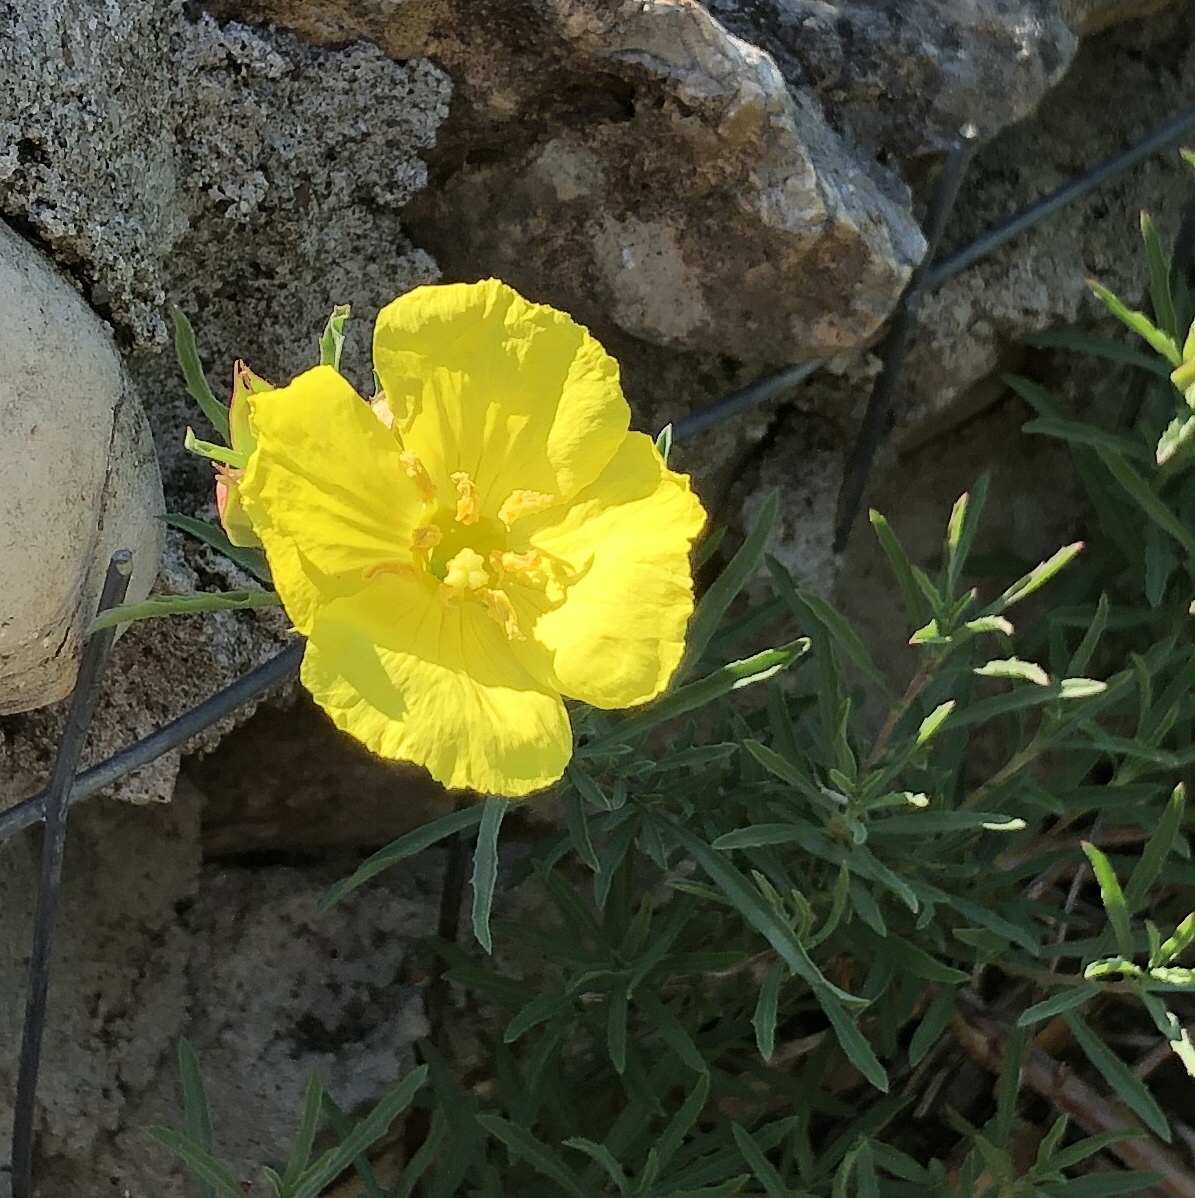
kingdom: Plantae
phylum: Tracheophyta
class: Magnoliopsida
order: Myrtales
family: Onagraceae
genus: Oenothera
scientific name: Oenothera
